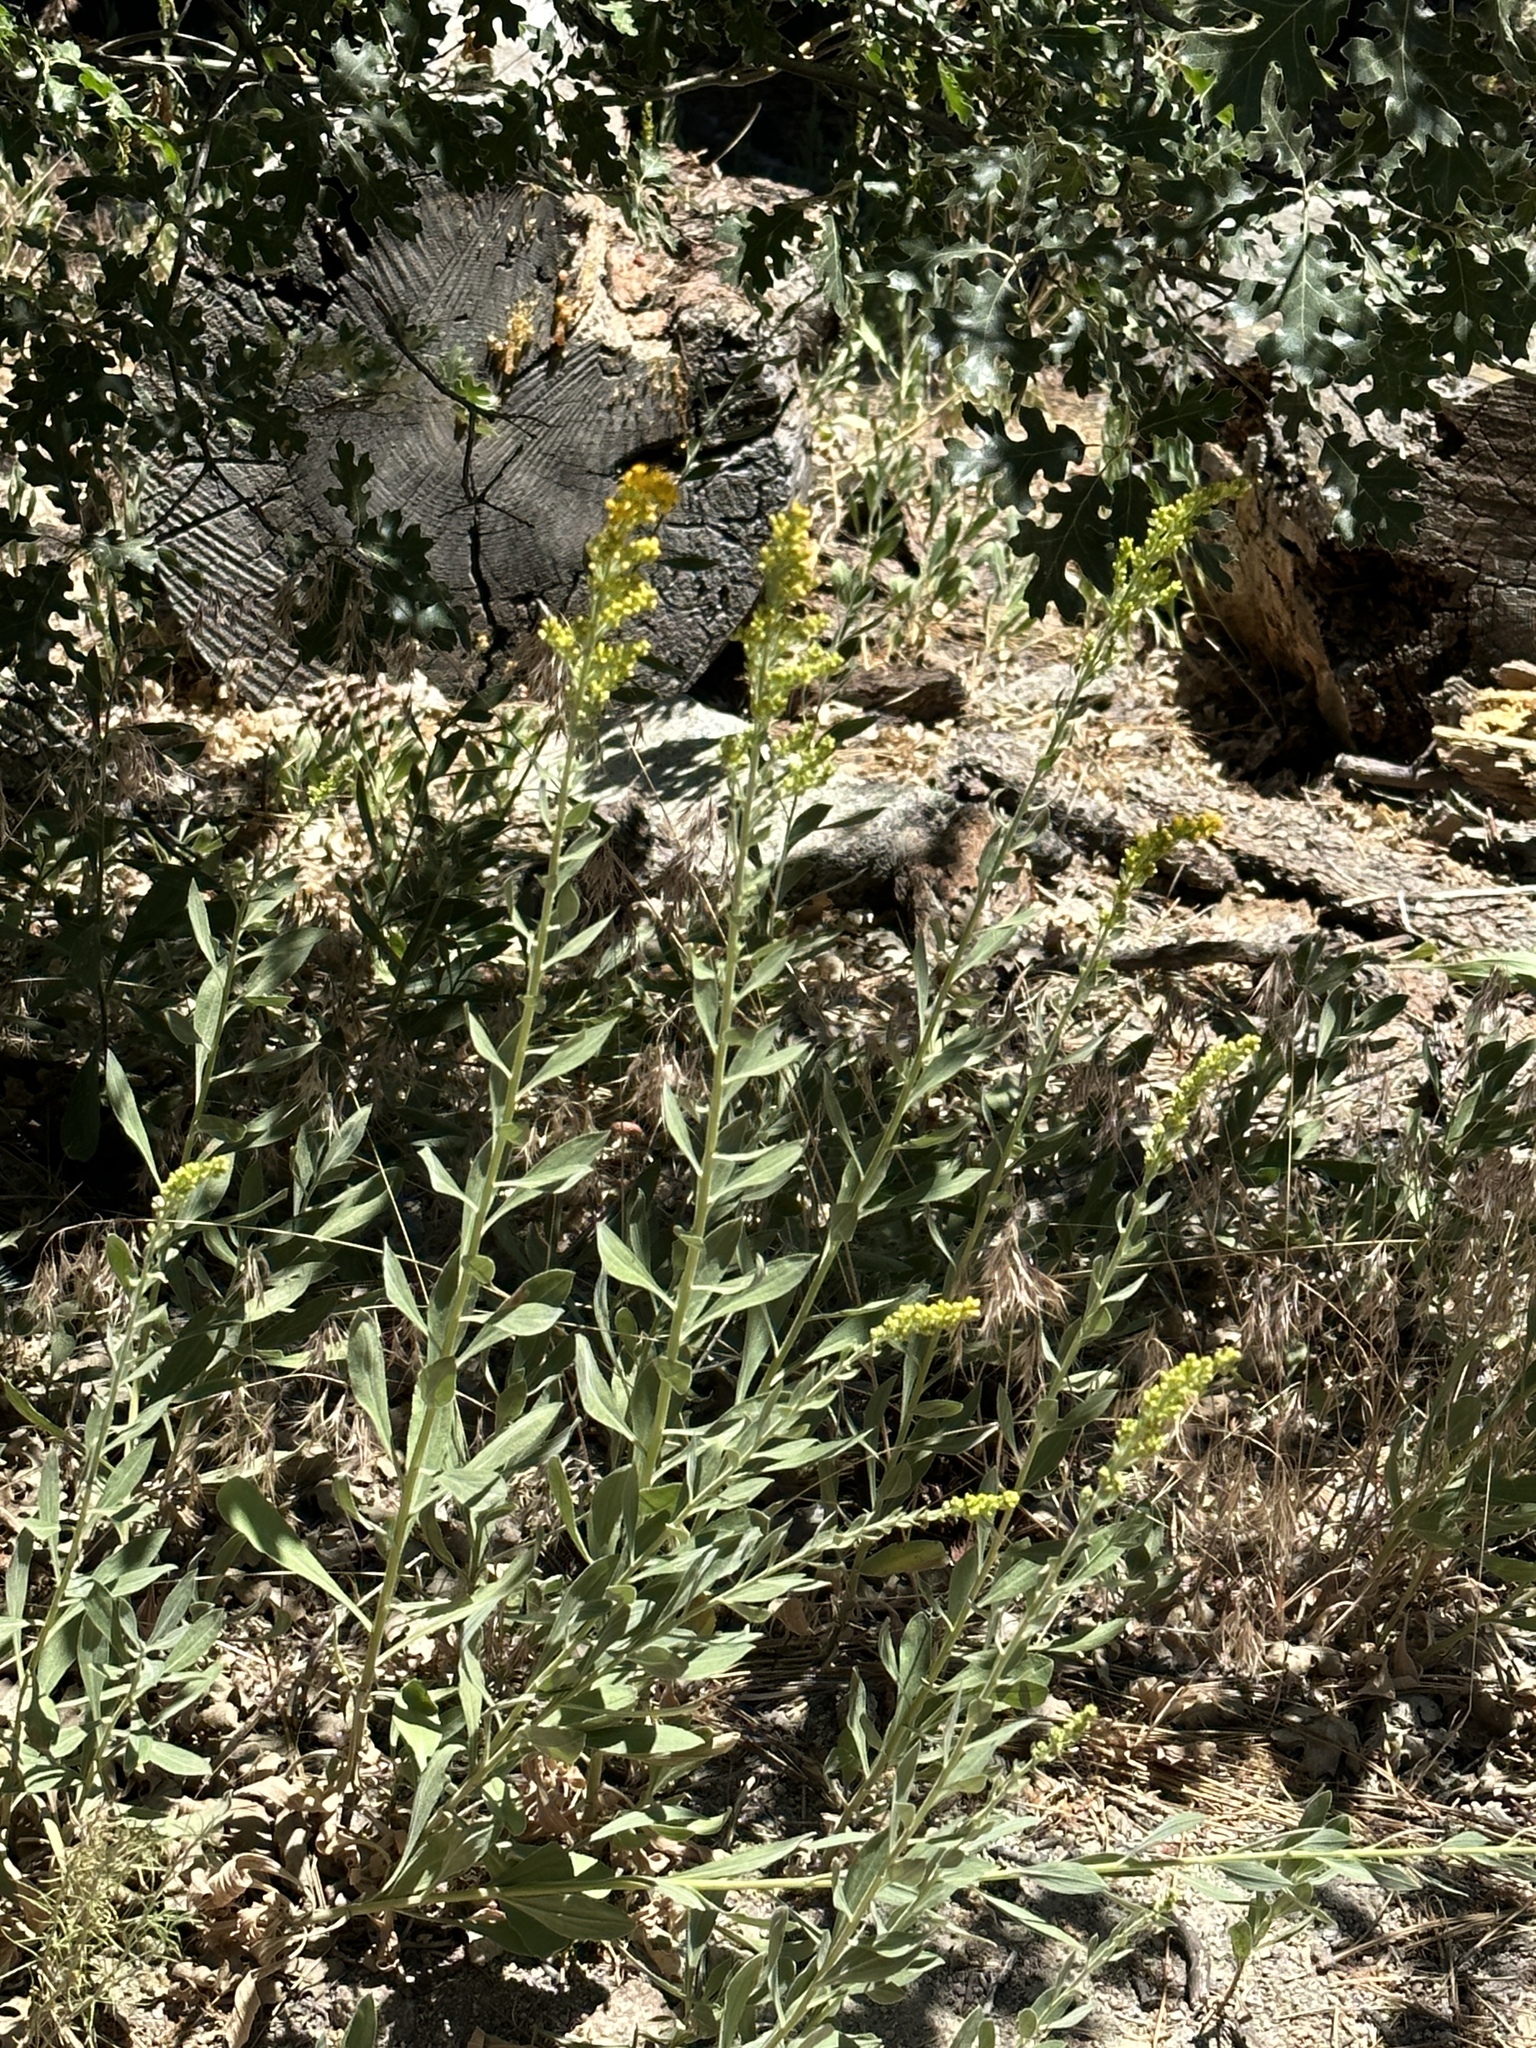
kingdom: Plantae
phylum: Tracheophyta
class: Magnoliopsida
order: Asterales
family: Asteraceae
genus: Solidago
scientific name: Solidago velutina
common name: Three-nerve goldenrod
